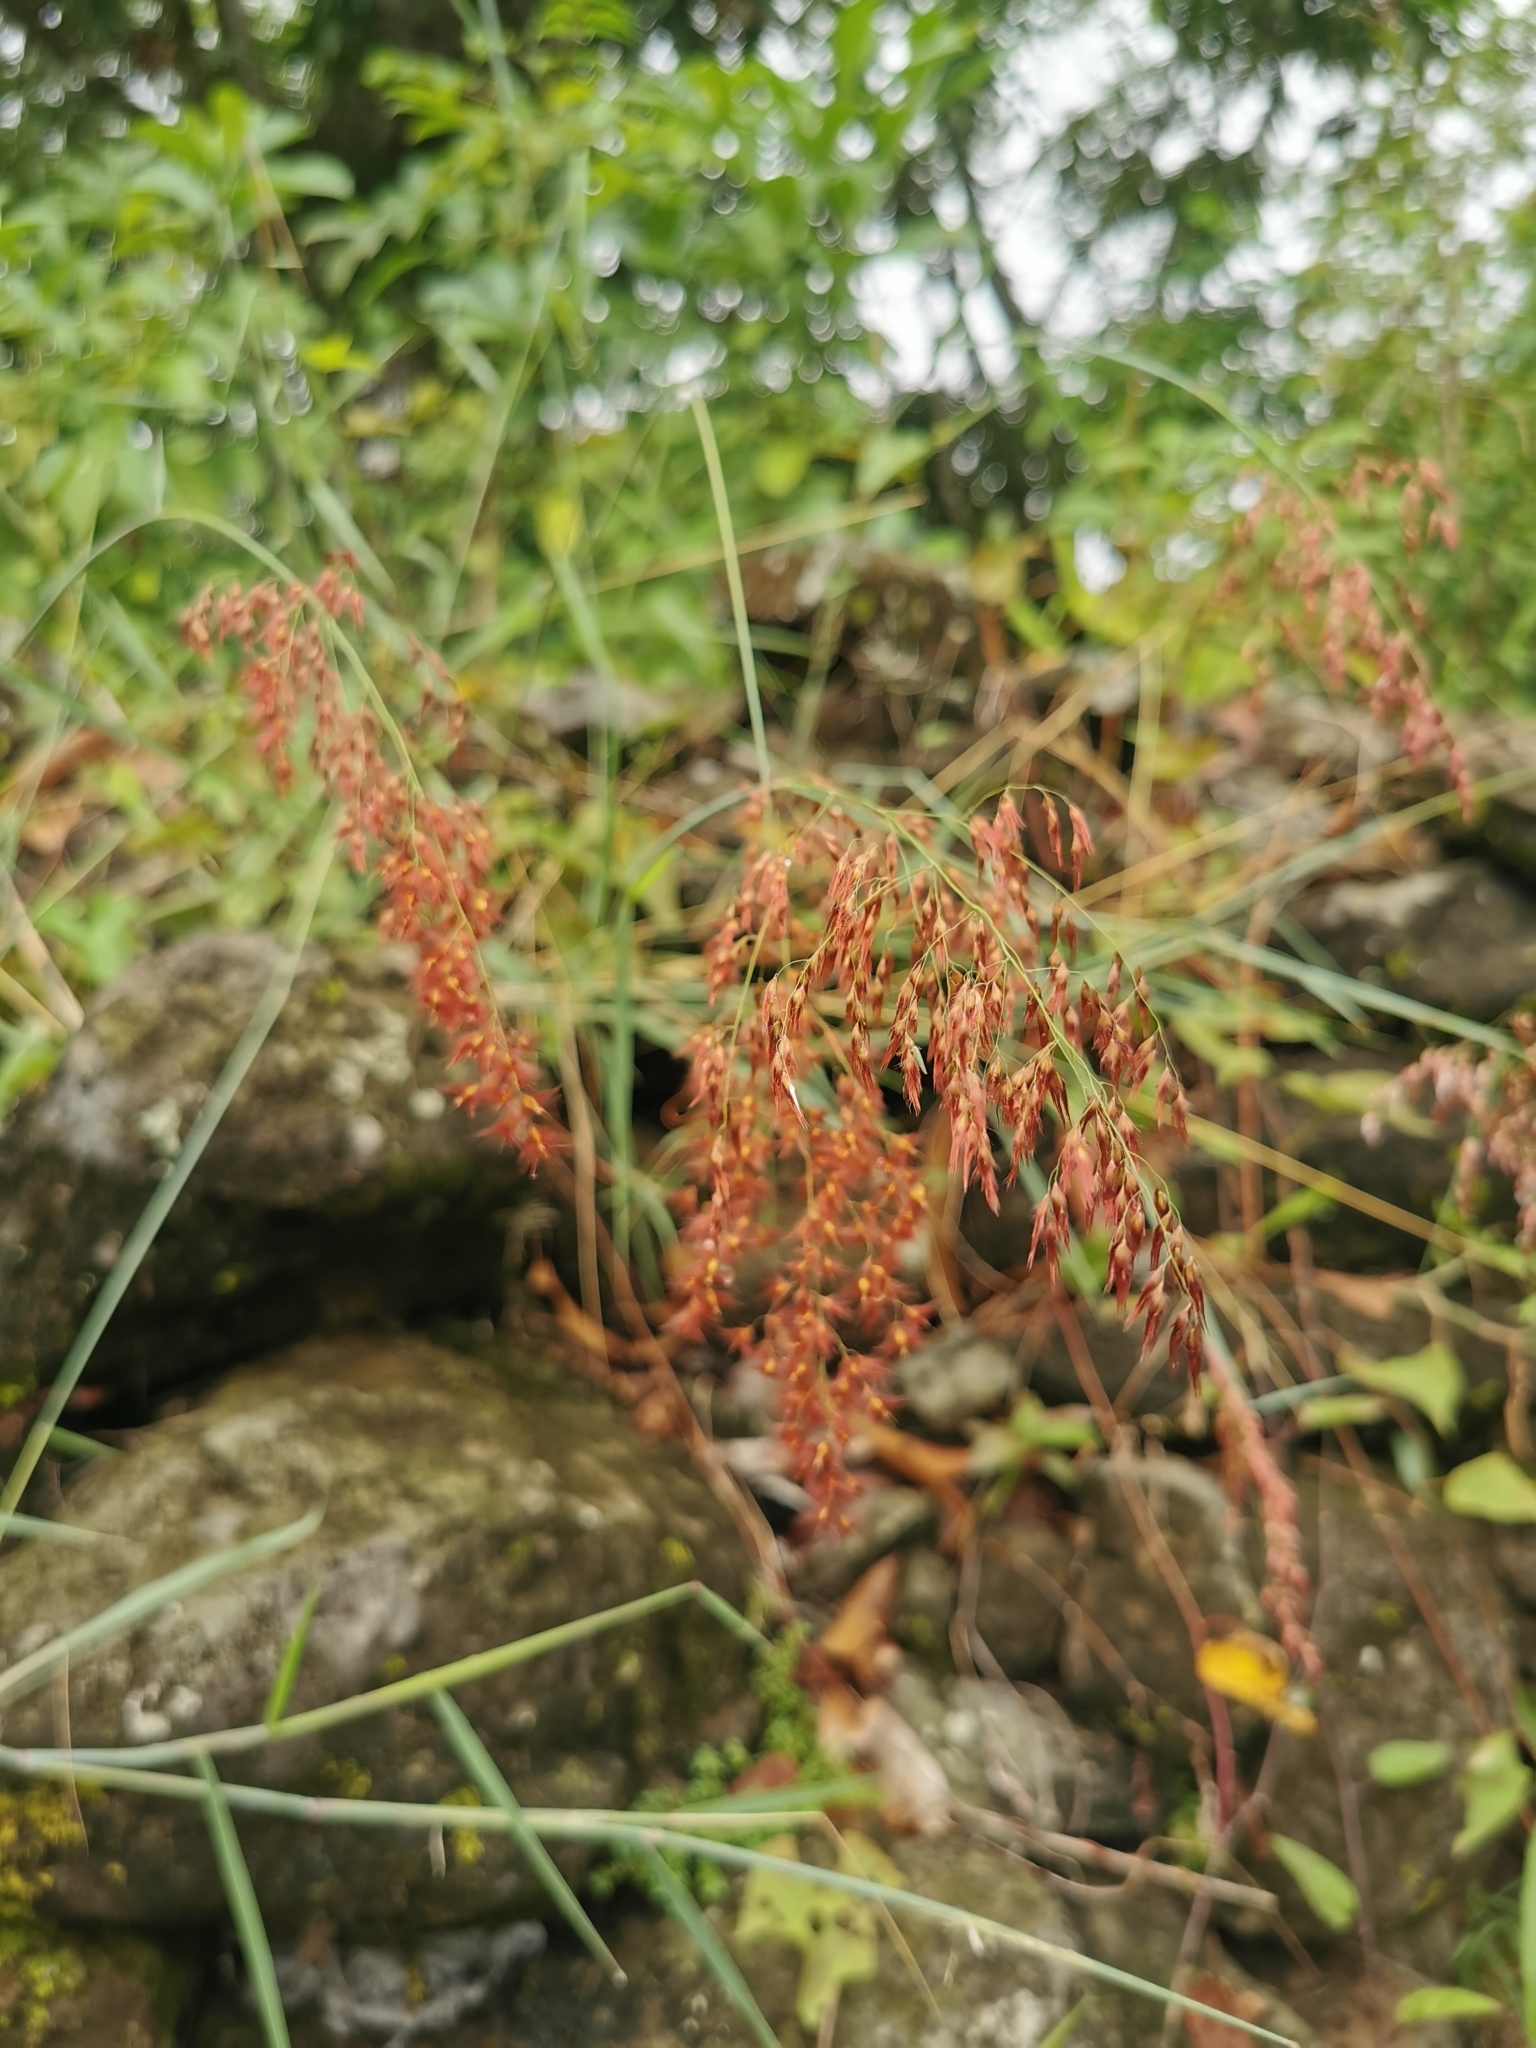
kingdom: Plantae
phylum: Tracheophyta
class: Liliopsida
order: Poales
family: Poaceae
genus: Melinis
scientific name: Melinis repens
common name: Rose natal grass
